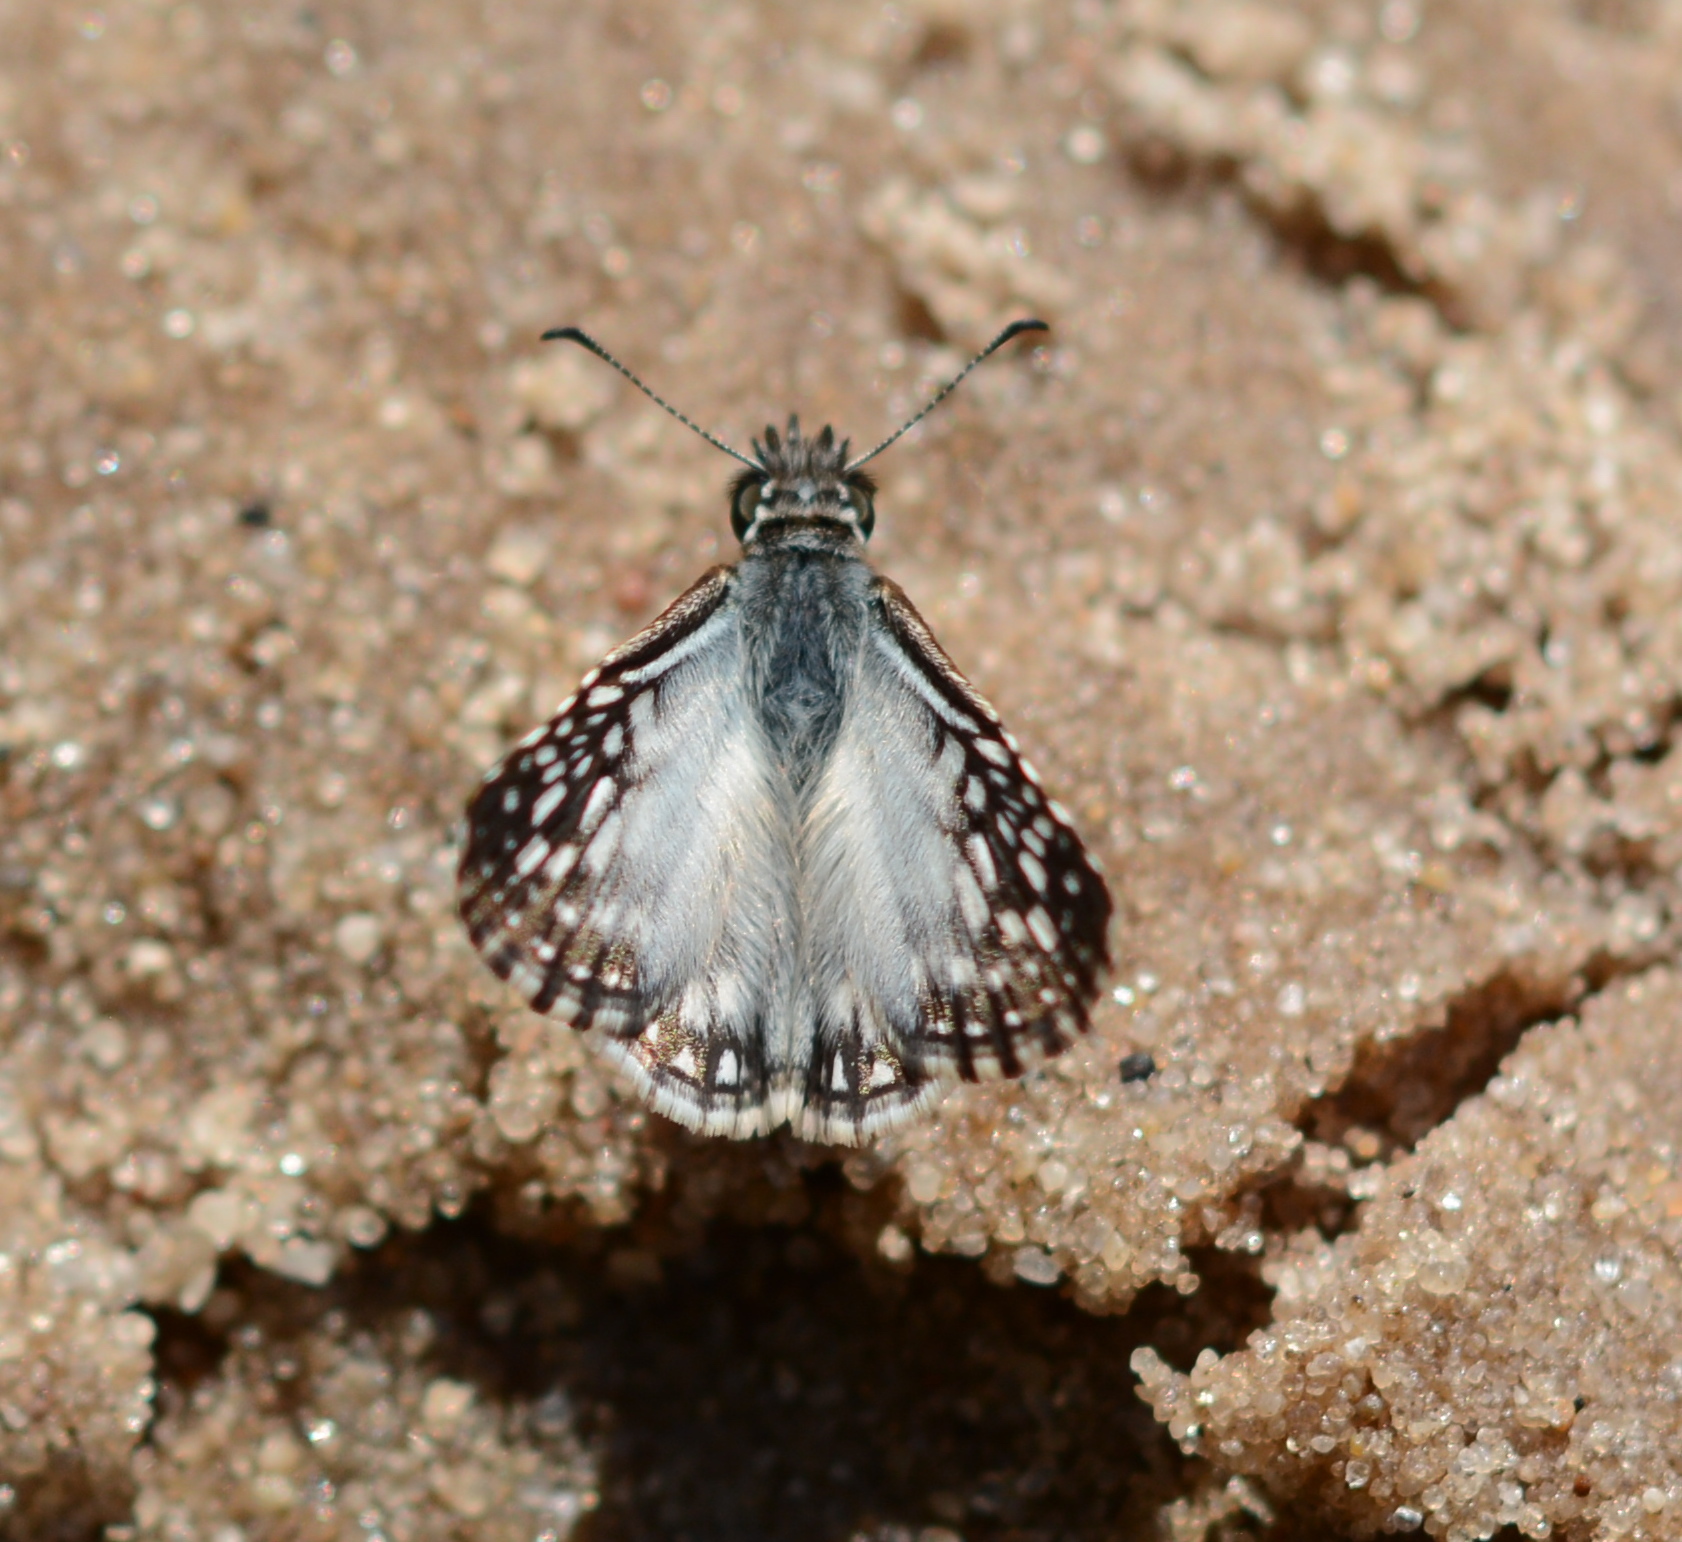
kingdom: Animalia
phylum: Arthropoda
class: Insecta
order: Lepidoptera
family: Hesperiidae
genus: Pyrgus
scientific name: Pyrgus oileus
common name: Tropical checkered-skipper
